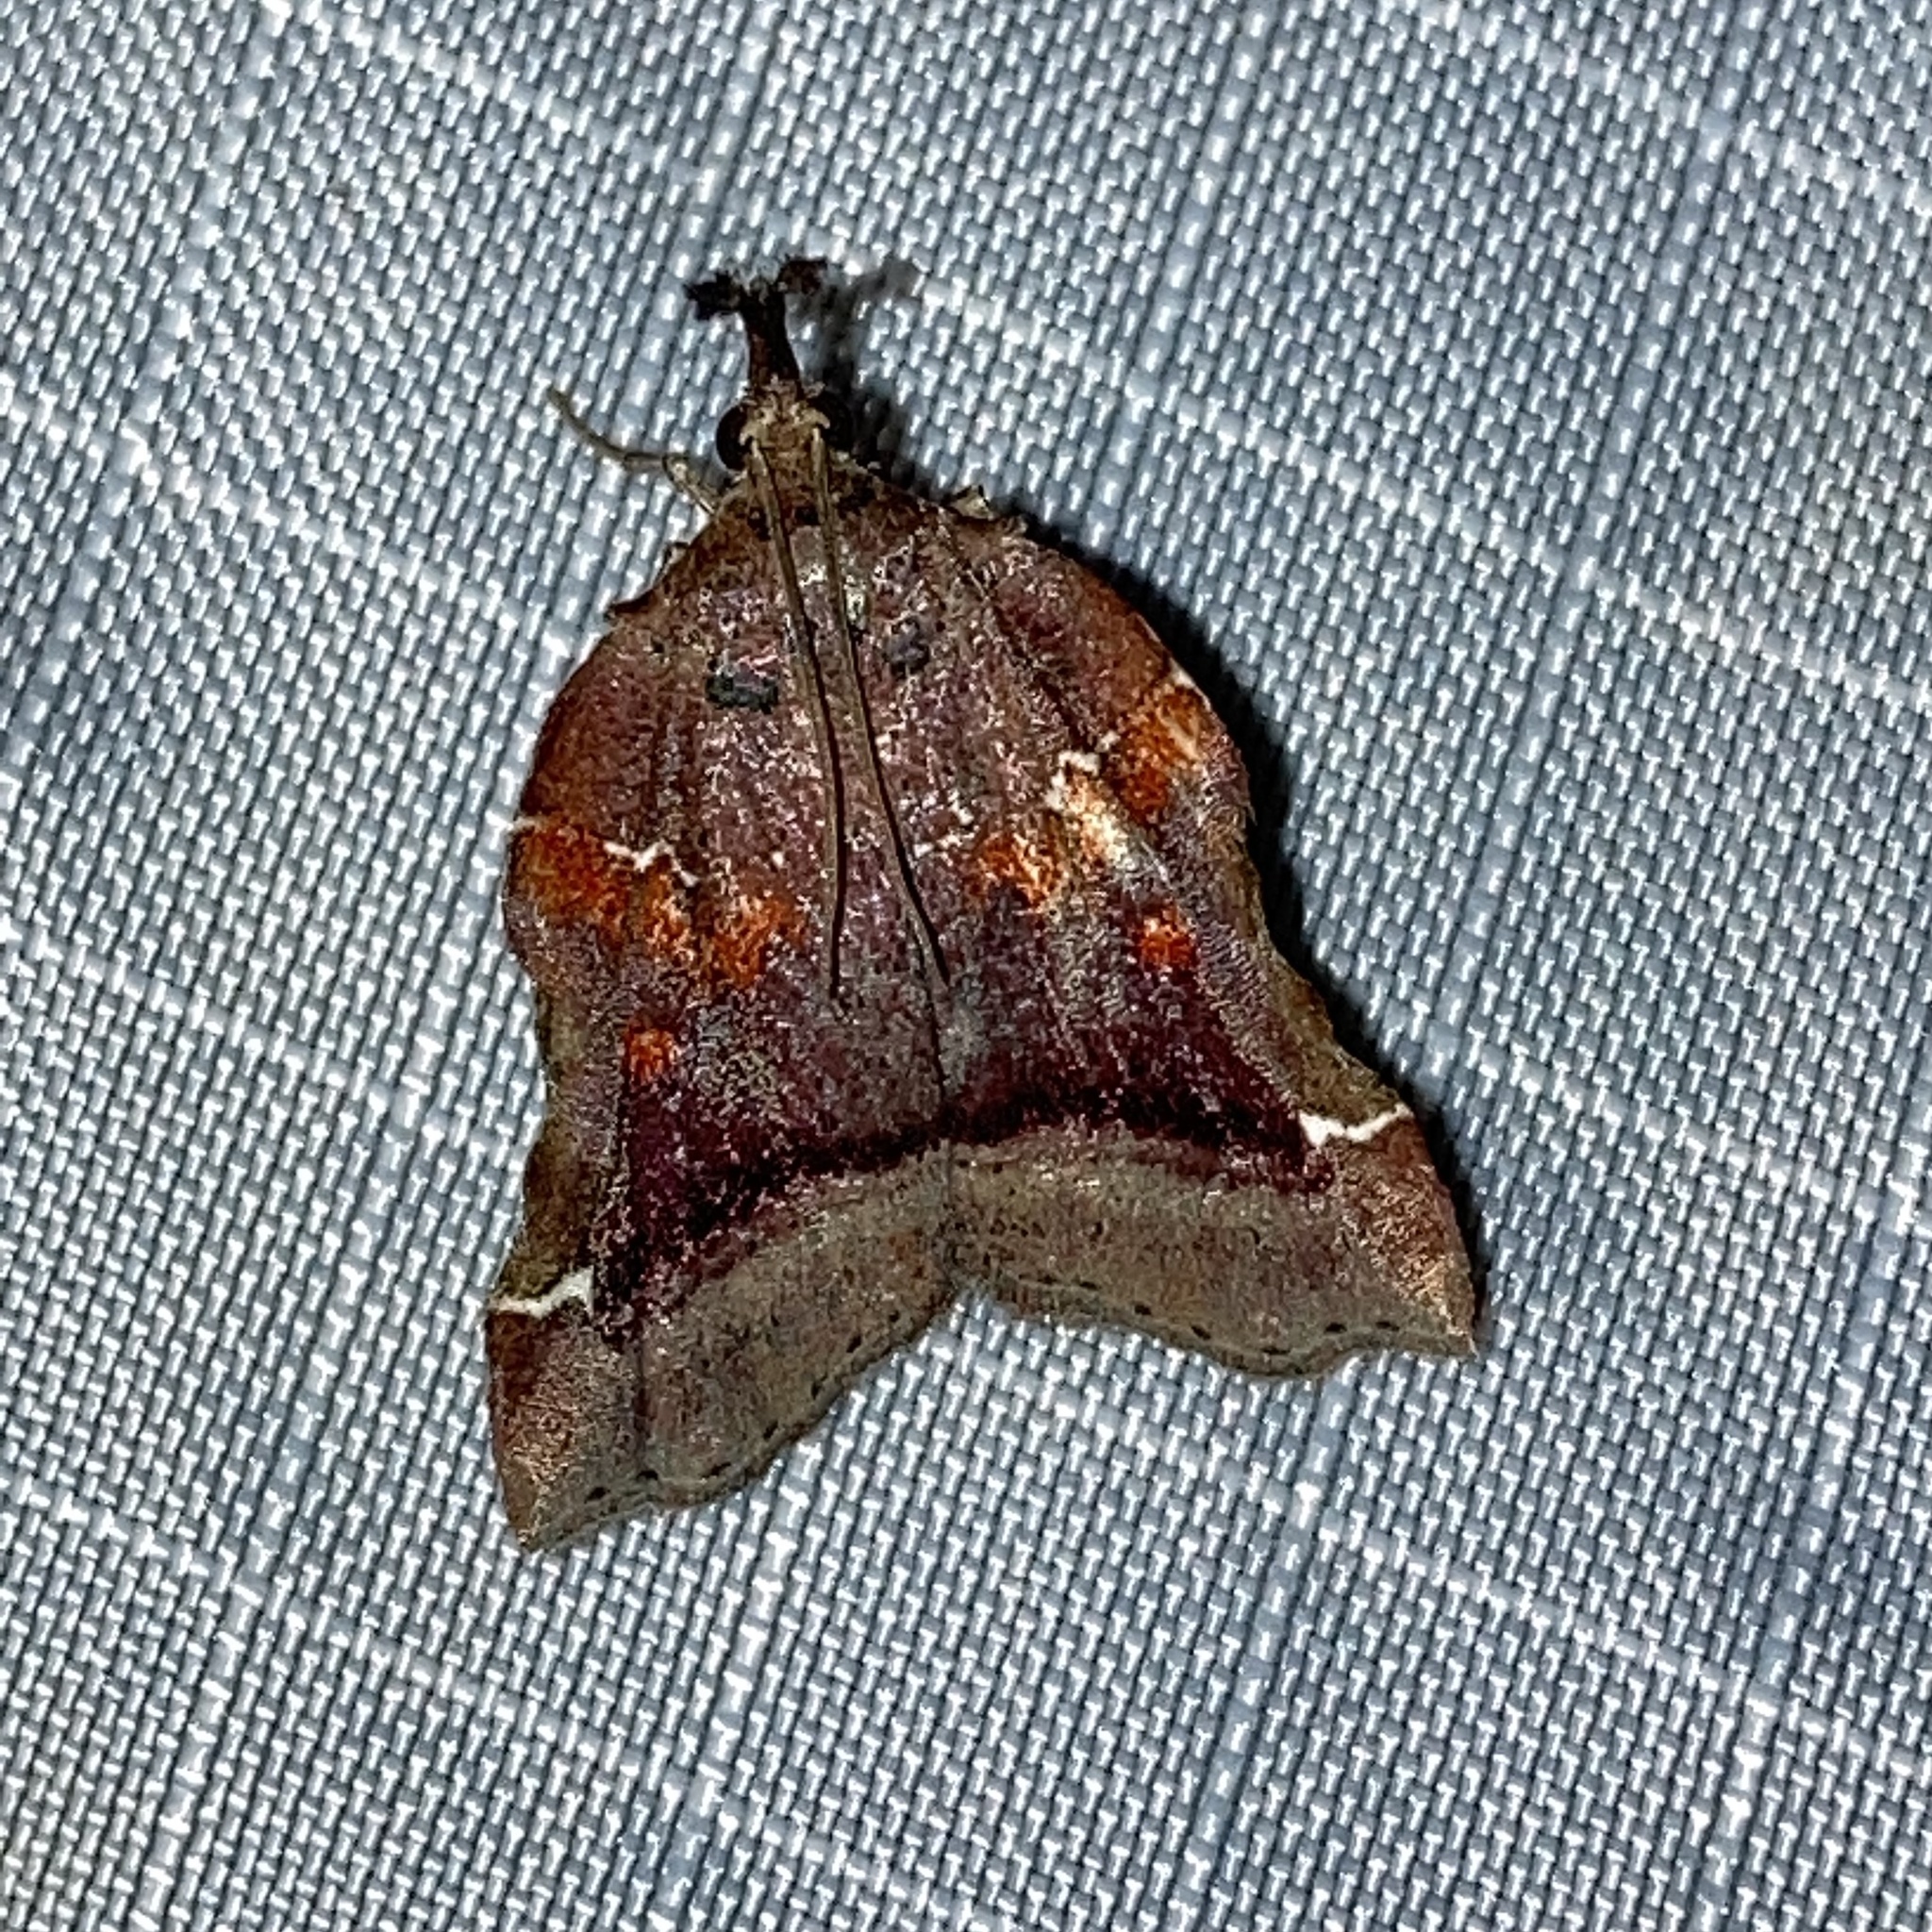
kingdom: Animalia
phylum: Arthropoda
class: Insecta
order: Lepidoptera
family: Pyralidae
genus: Clydonopteron
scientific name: Clydonopteron sacculana
